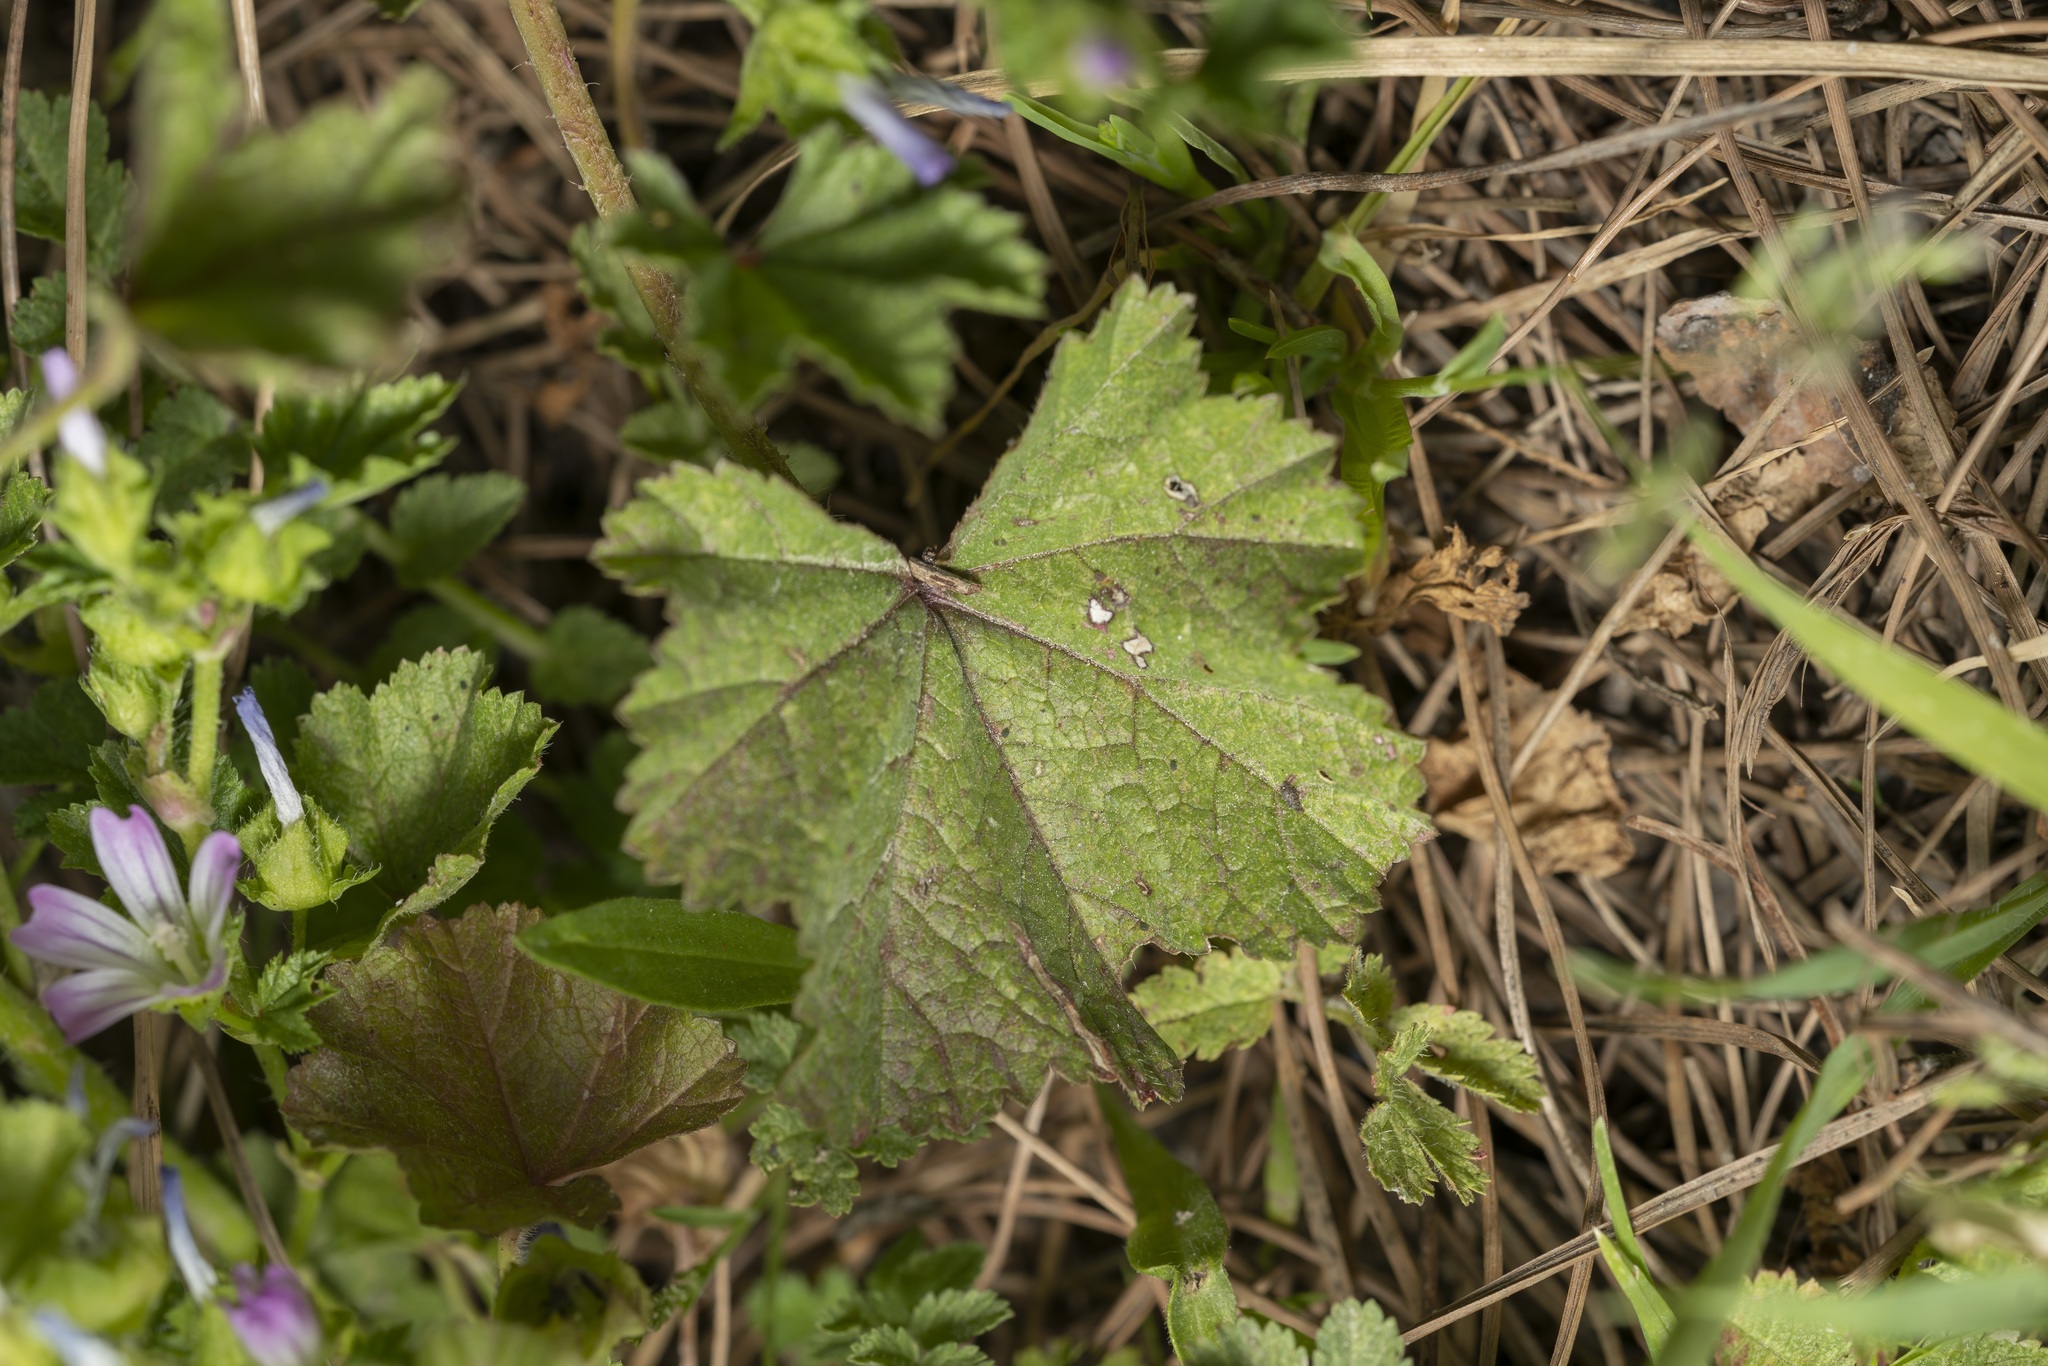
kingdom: Plantae
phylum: Tracheophyta
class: Magnoliopsida
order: Malvales
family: Malvaceae
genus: Malva
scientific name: Malva multiflora
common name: Cheeseweed
